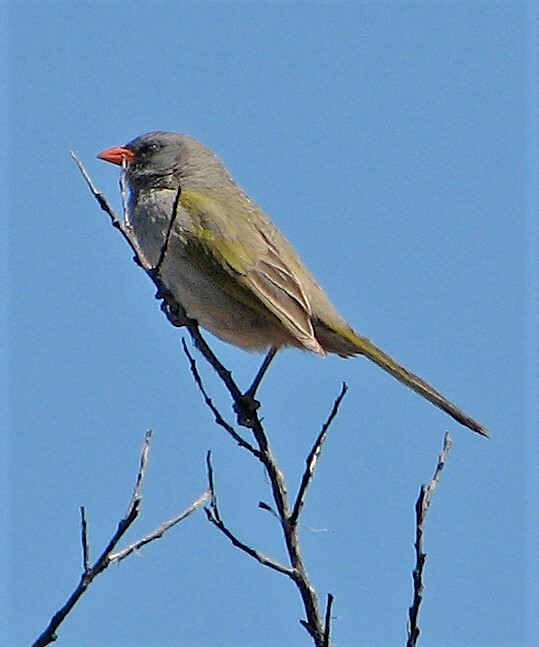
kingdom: Animalia
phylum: Chordata
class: Aves
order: Passeriformes
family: Thraupidae
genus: Embernagra
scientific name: Embernagra platensis
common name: Pampa finch
